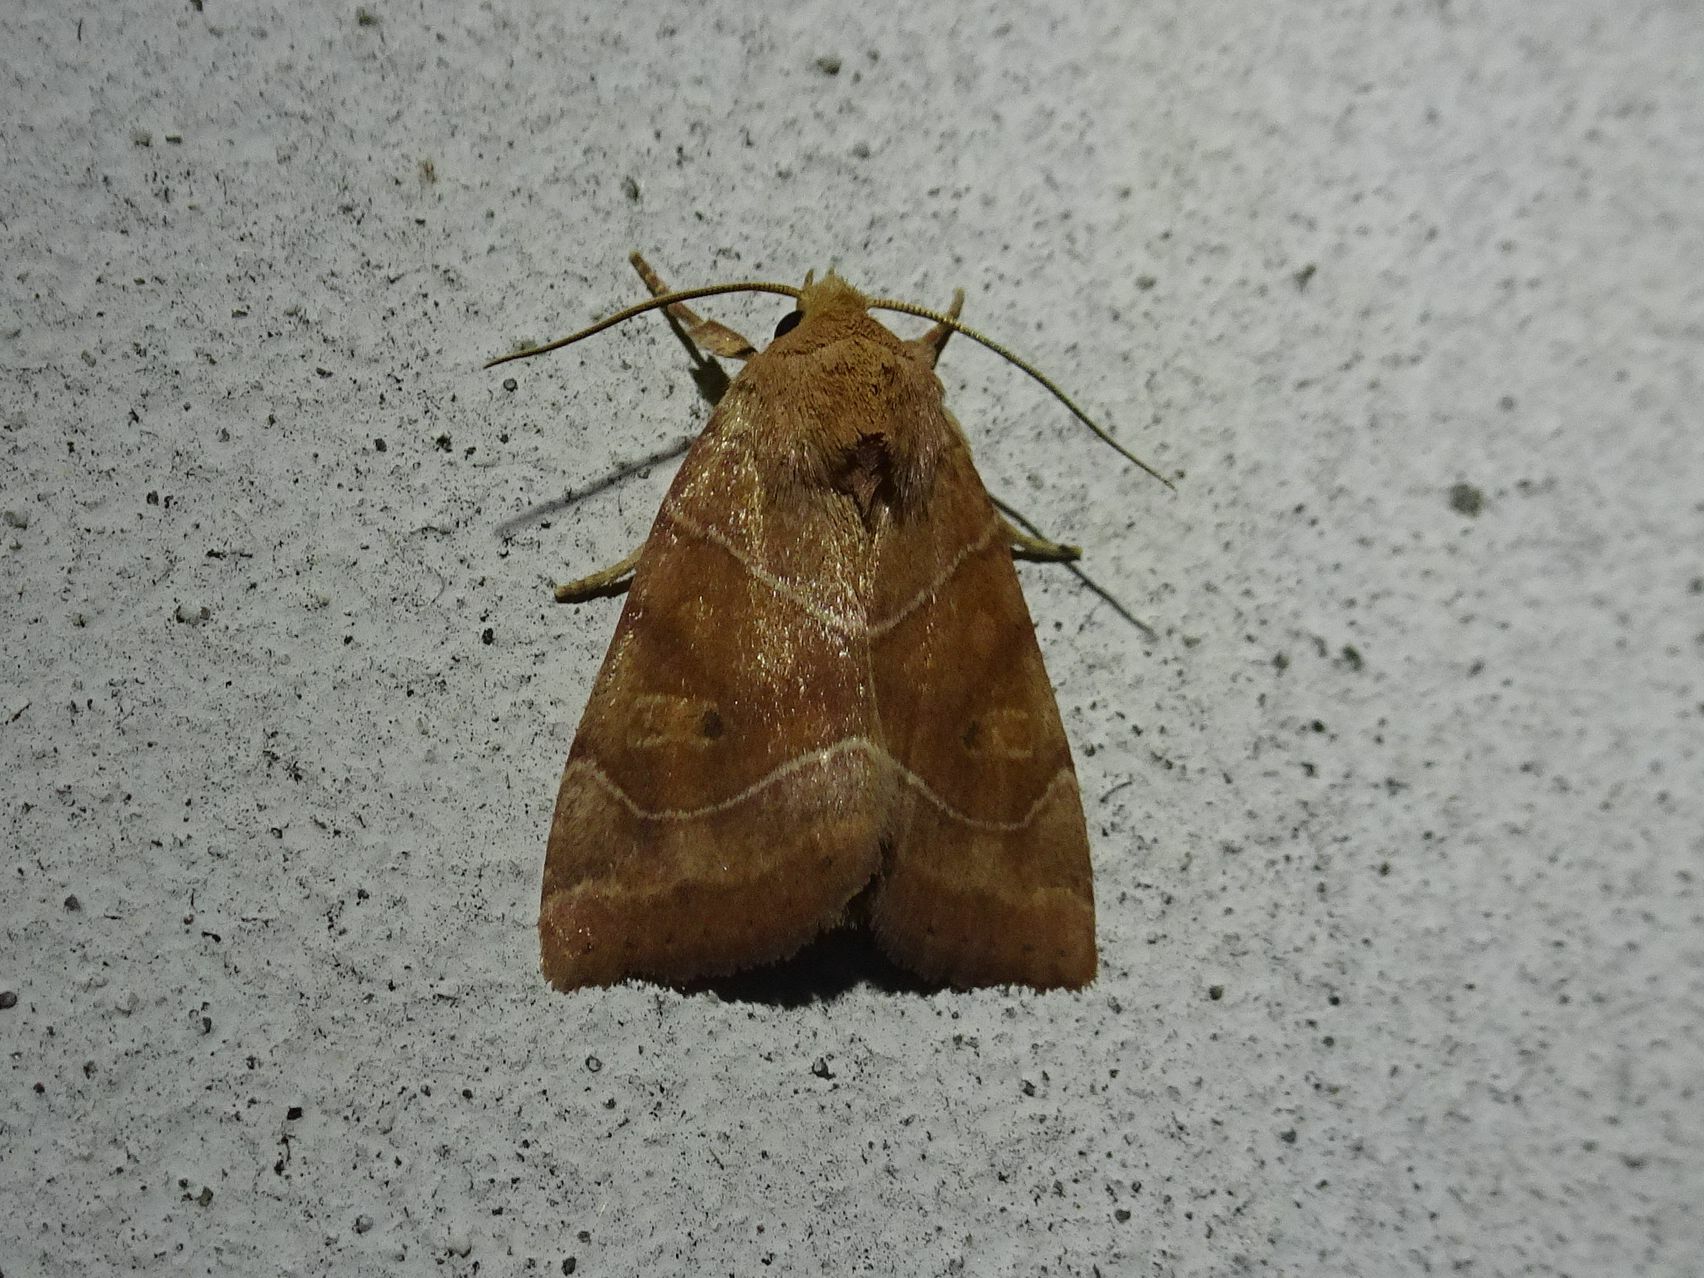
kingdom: Animalia
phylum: Arthropoda
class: Insecta
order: Lepidoptera
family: Noctuidae
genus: Cosmia
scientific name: Cosmia trapezina
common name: Dun-bar
